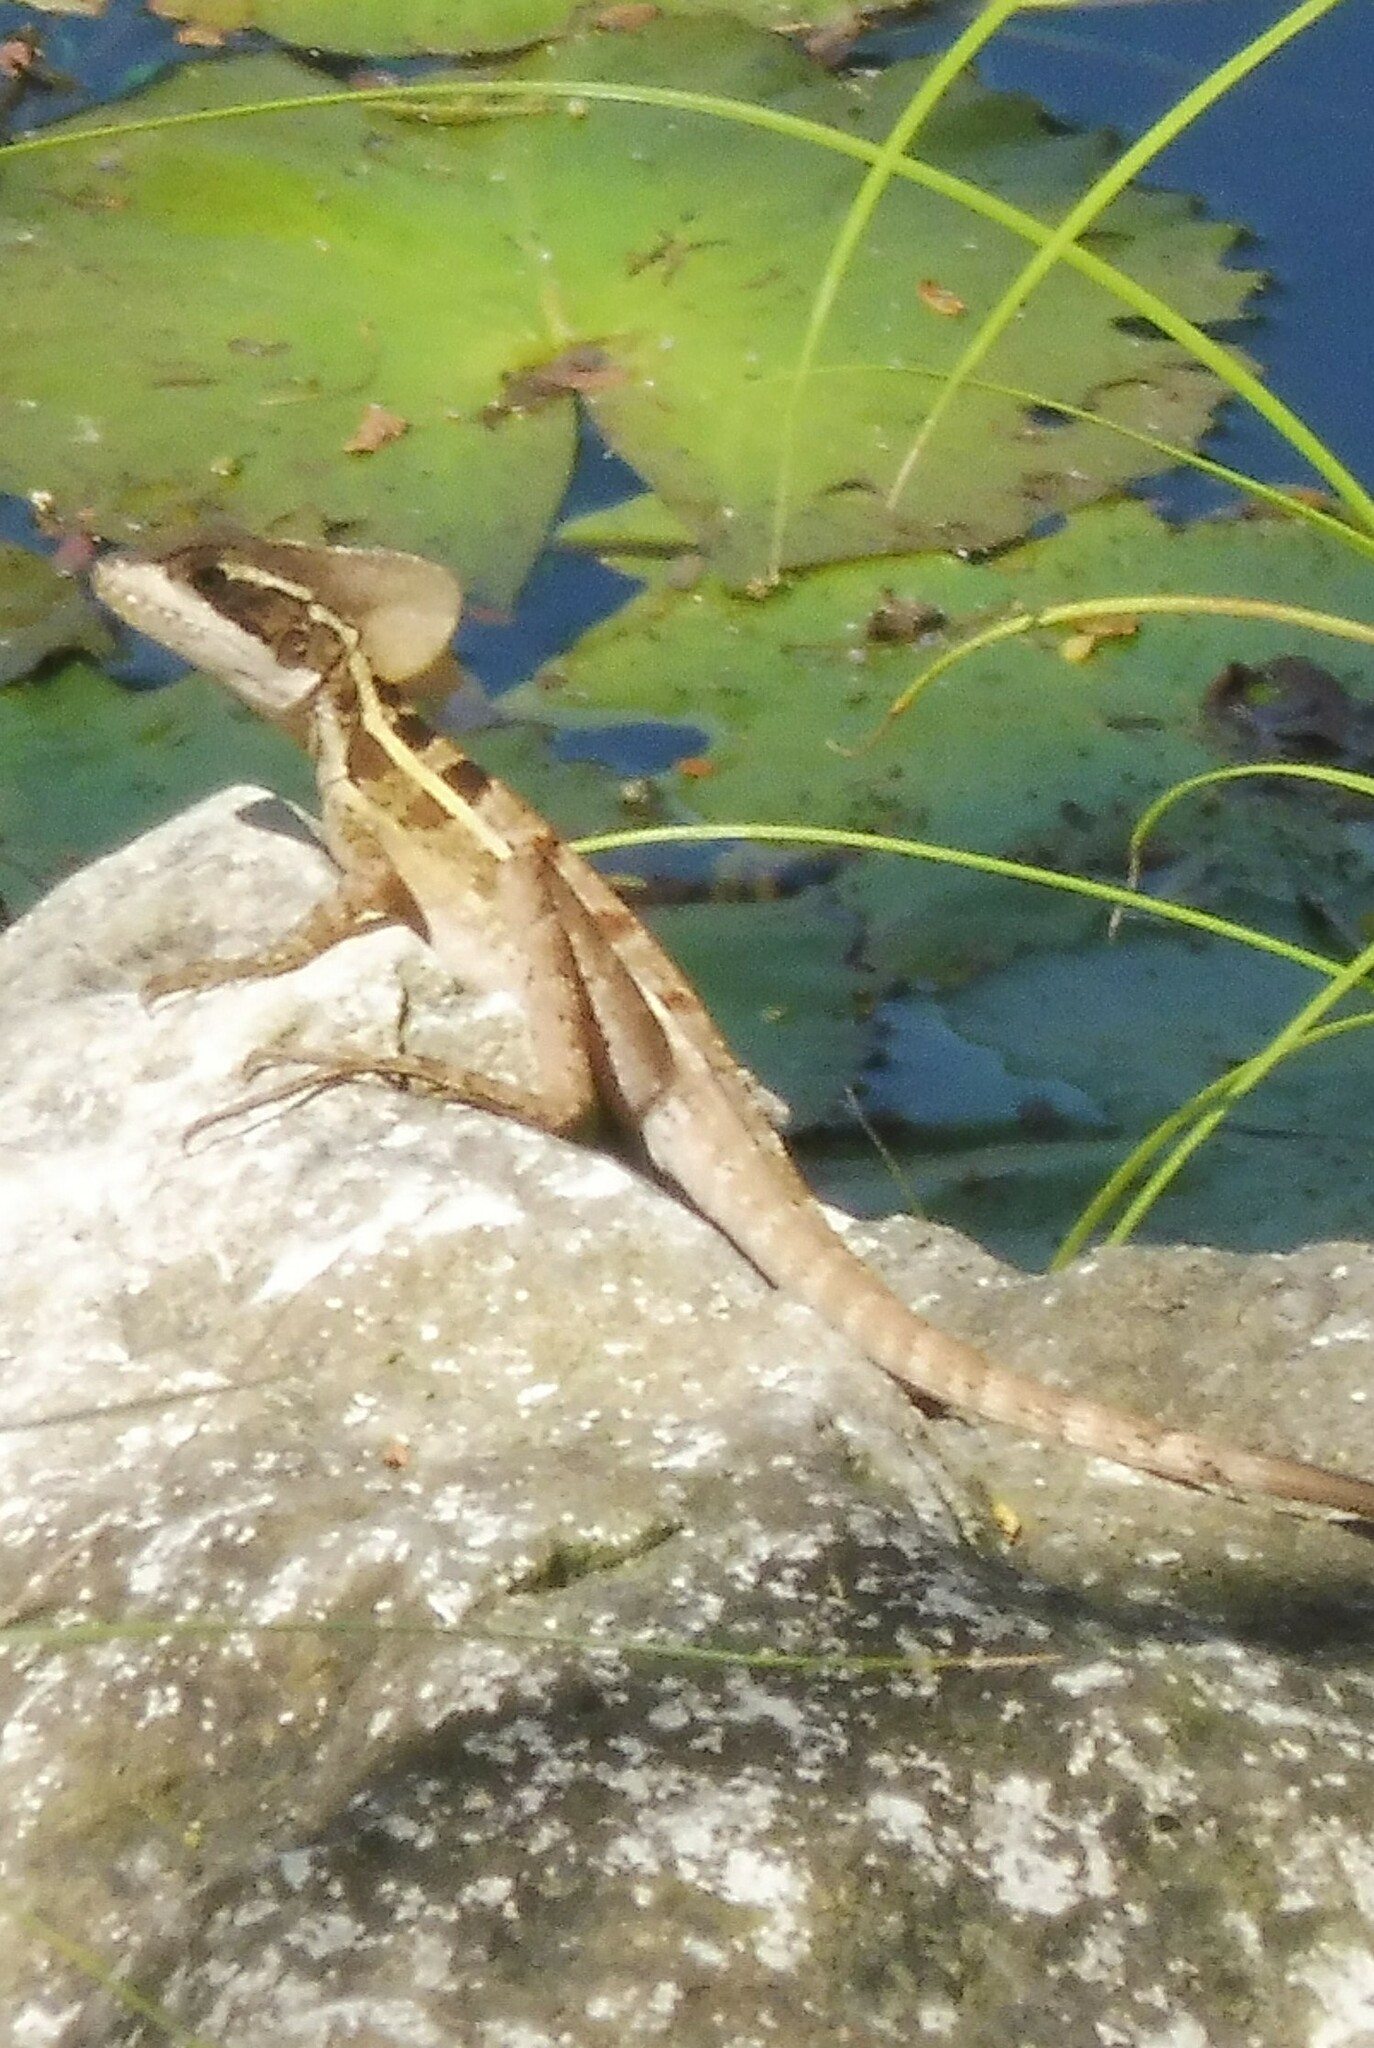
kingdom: Animalia
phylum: Chordata
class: Squamata
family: Corytophanidae
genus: Basiliscus
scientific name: Basiliscus vittatus
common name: Brown basilisk
